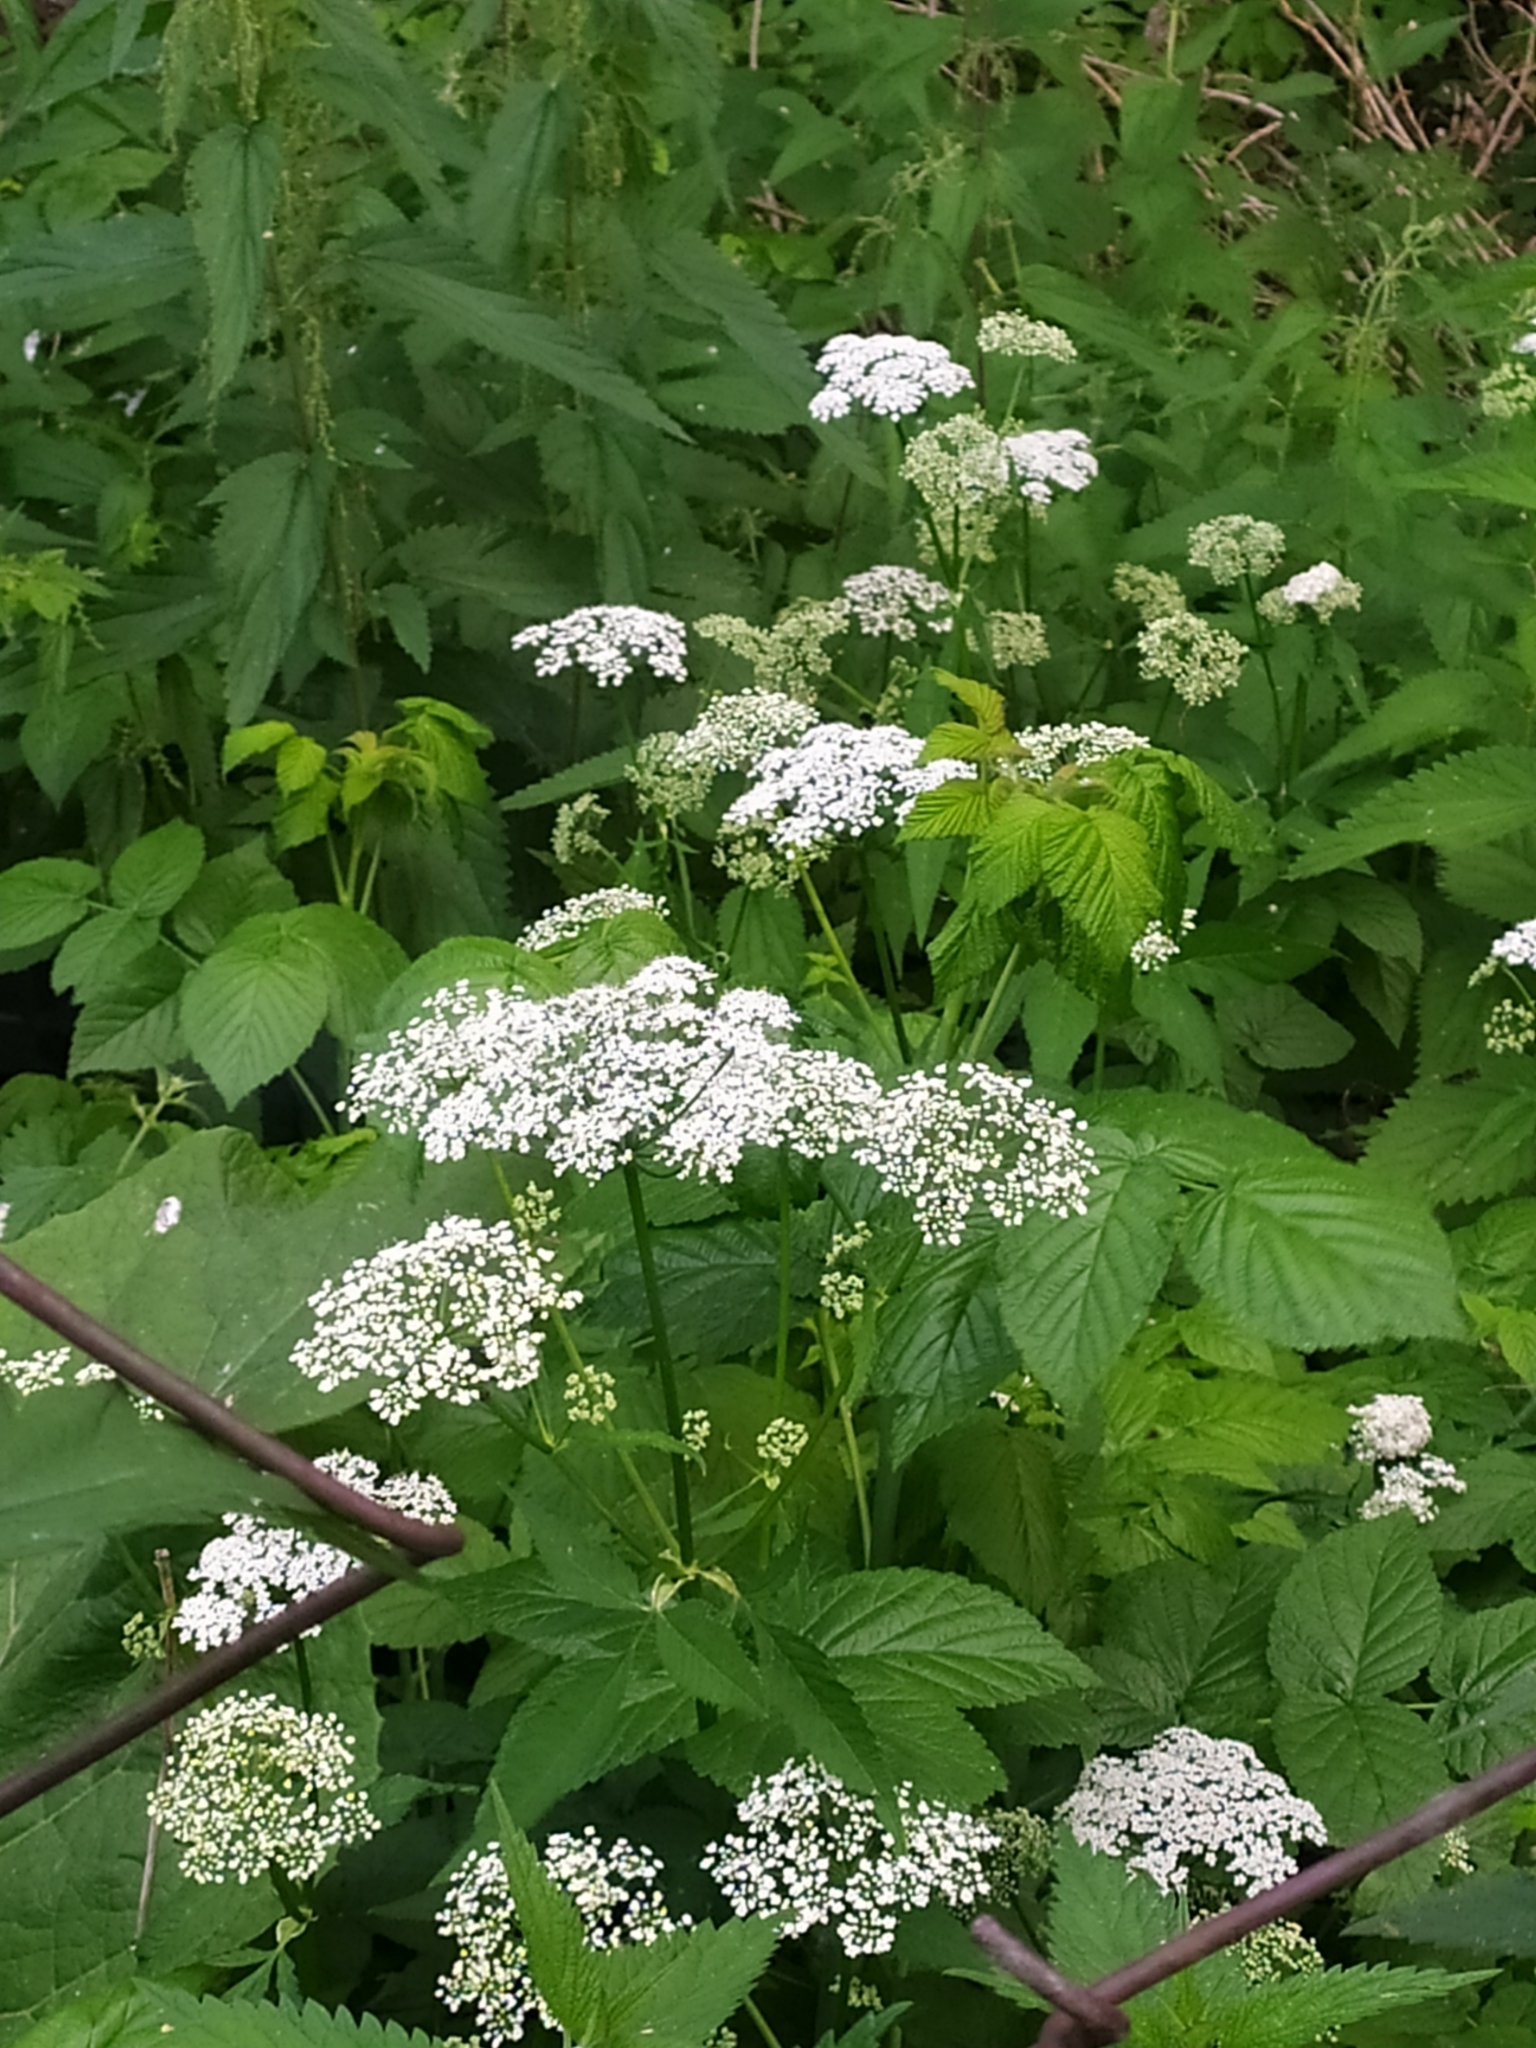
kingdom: Plantae
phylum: Tracheophyta
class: Magnoliopsida
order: Apiales
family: Apiaceae
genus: Aegopodium
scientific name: Aegopodium podagraria
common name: Ground-elder
